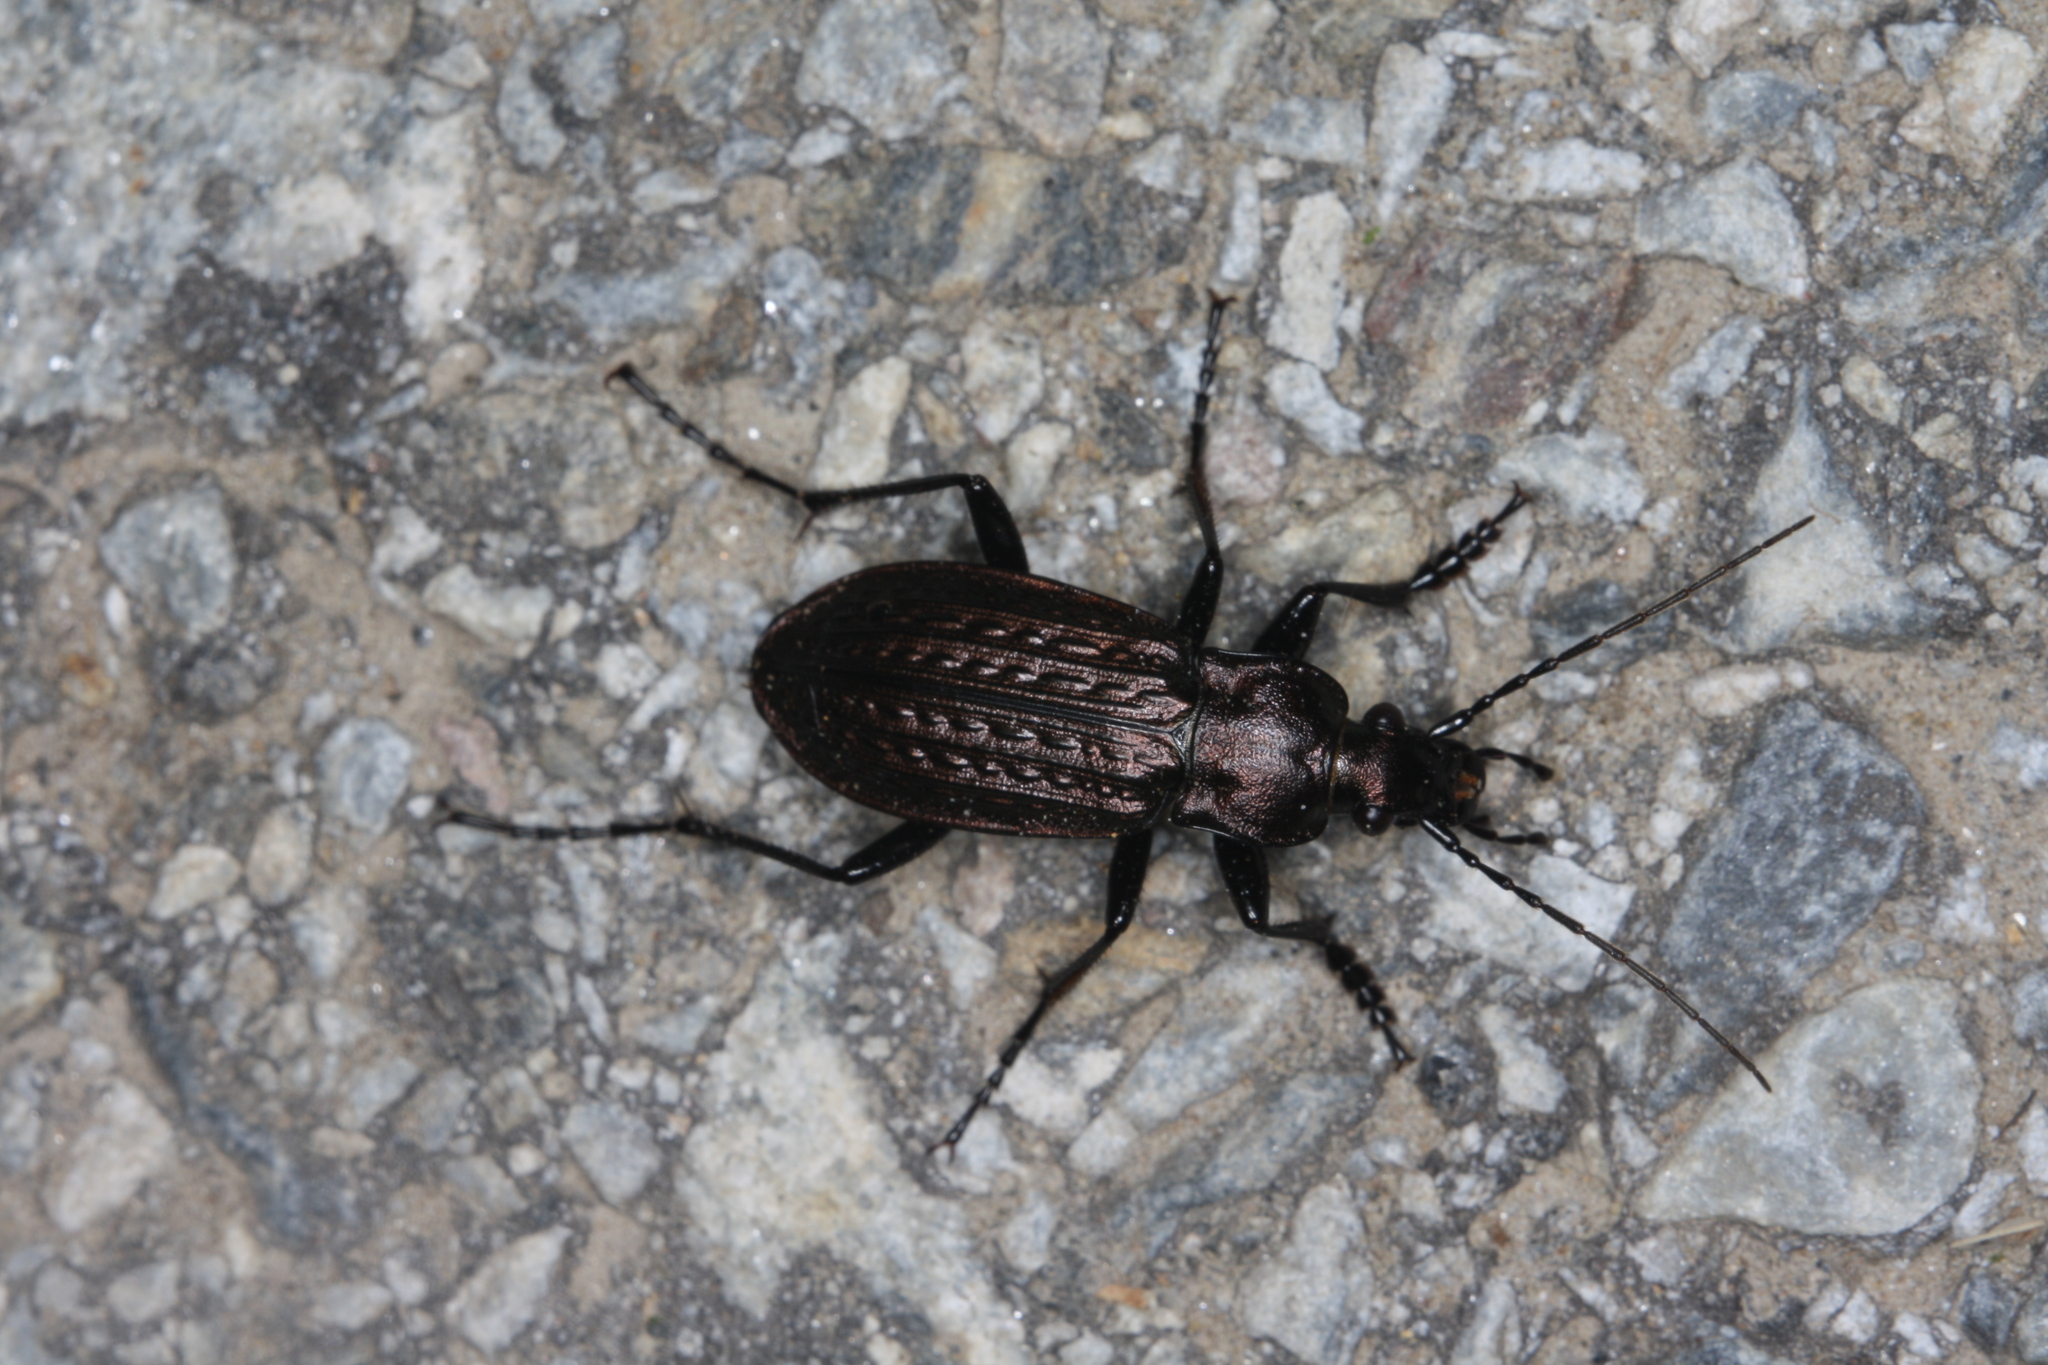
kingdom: Animalia
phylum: Arthropoda
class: Insecta
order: Coleoptera
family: Carabidae
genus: Carabus
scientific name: Carabus granulatus
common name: Granulate ground beetle
